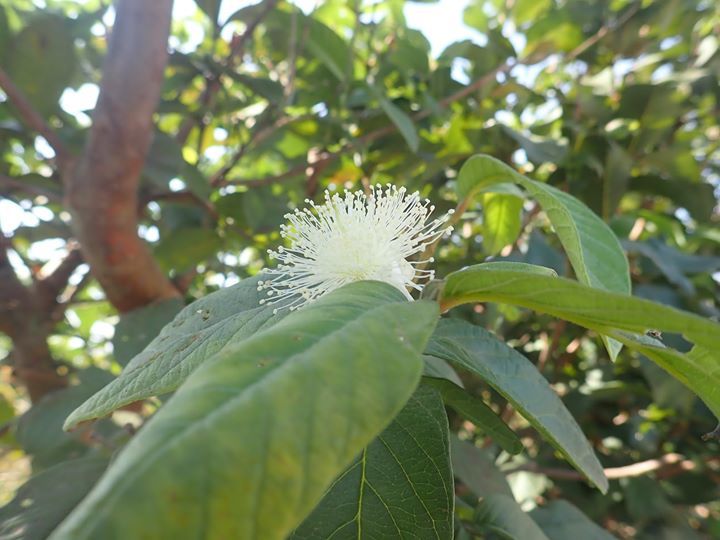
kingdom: Plantae
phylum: Tracheophyta
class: Magnoliopsida
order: Myrtales
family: Myrtaceae
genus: Psidium
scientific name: Psidium guajava
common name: Guava
